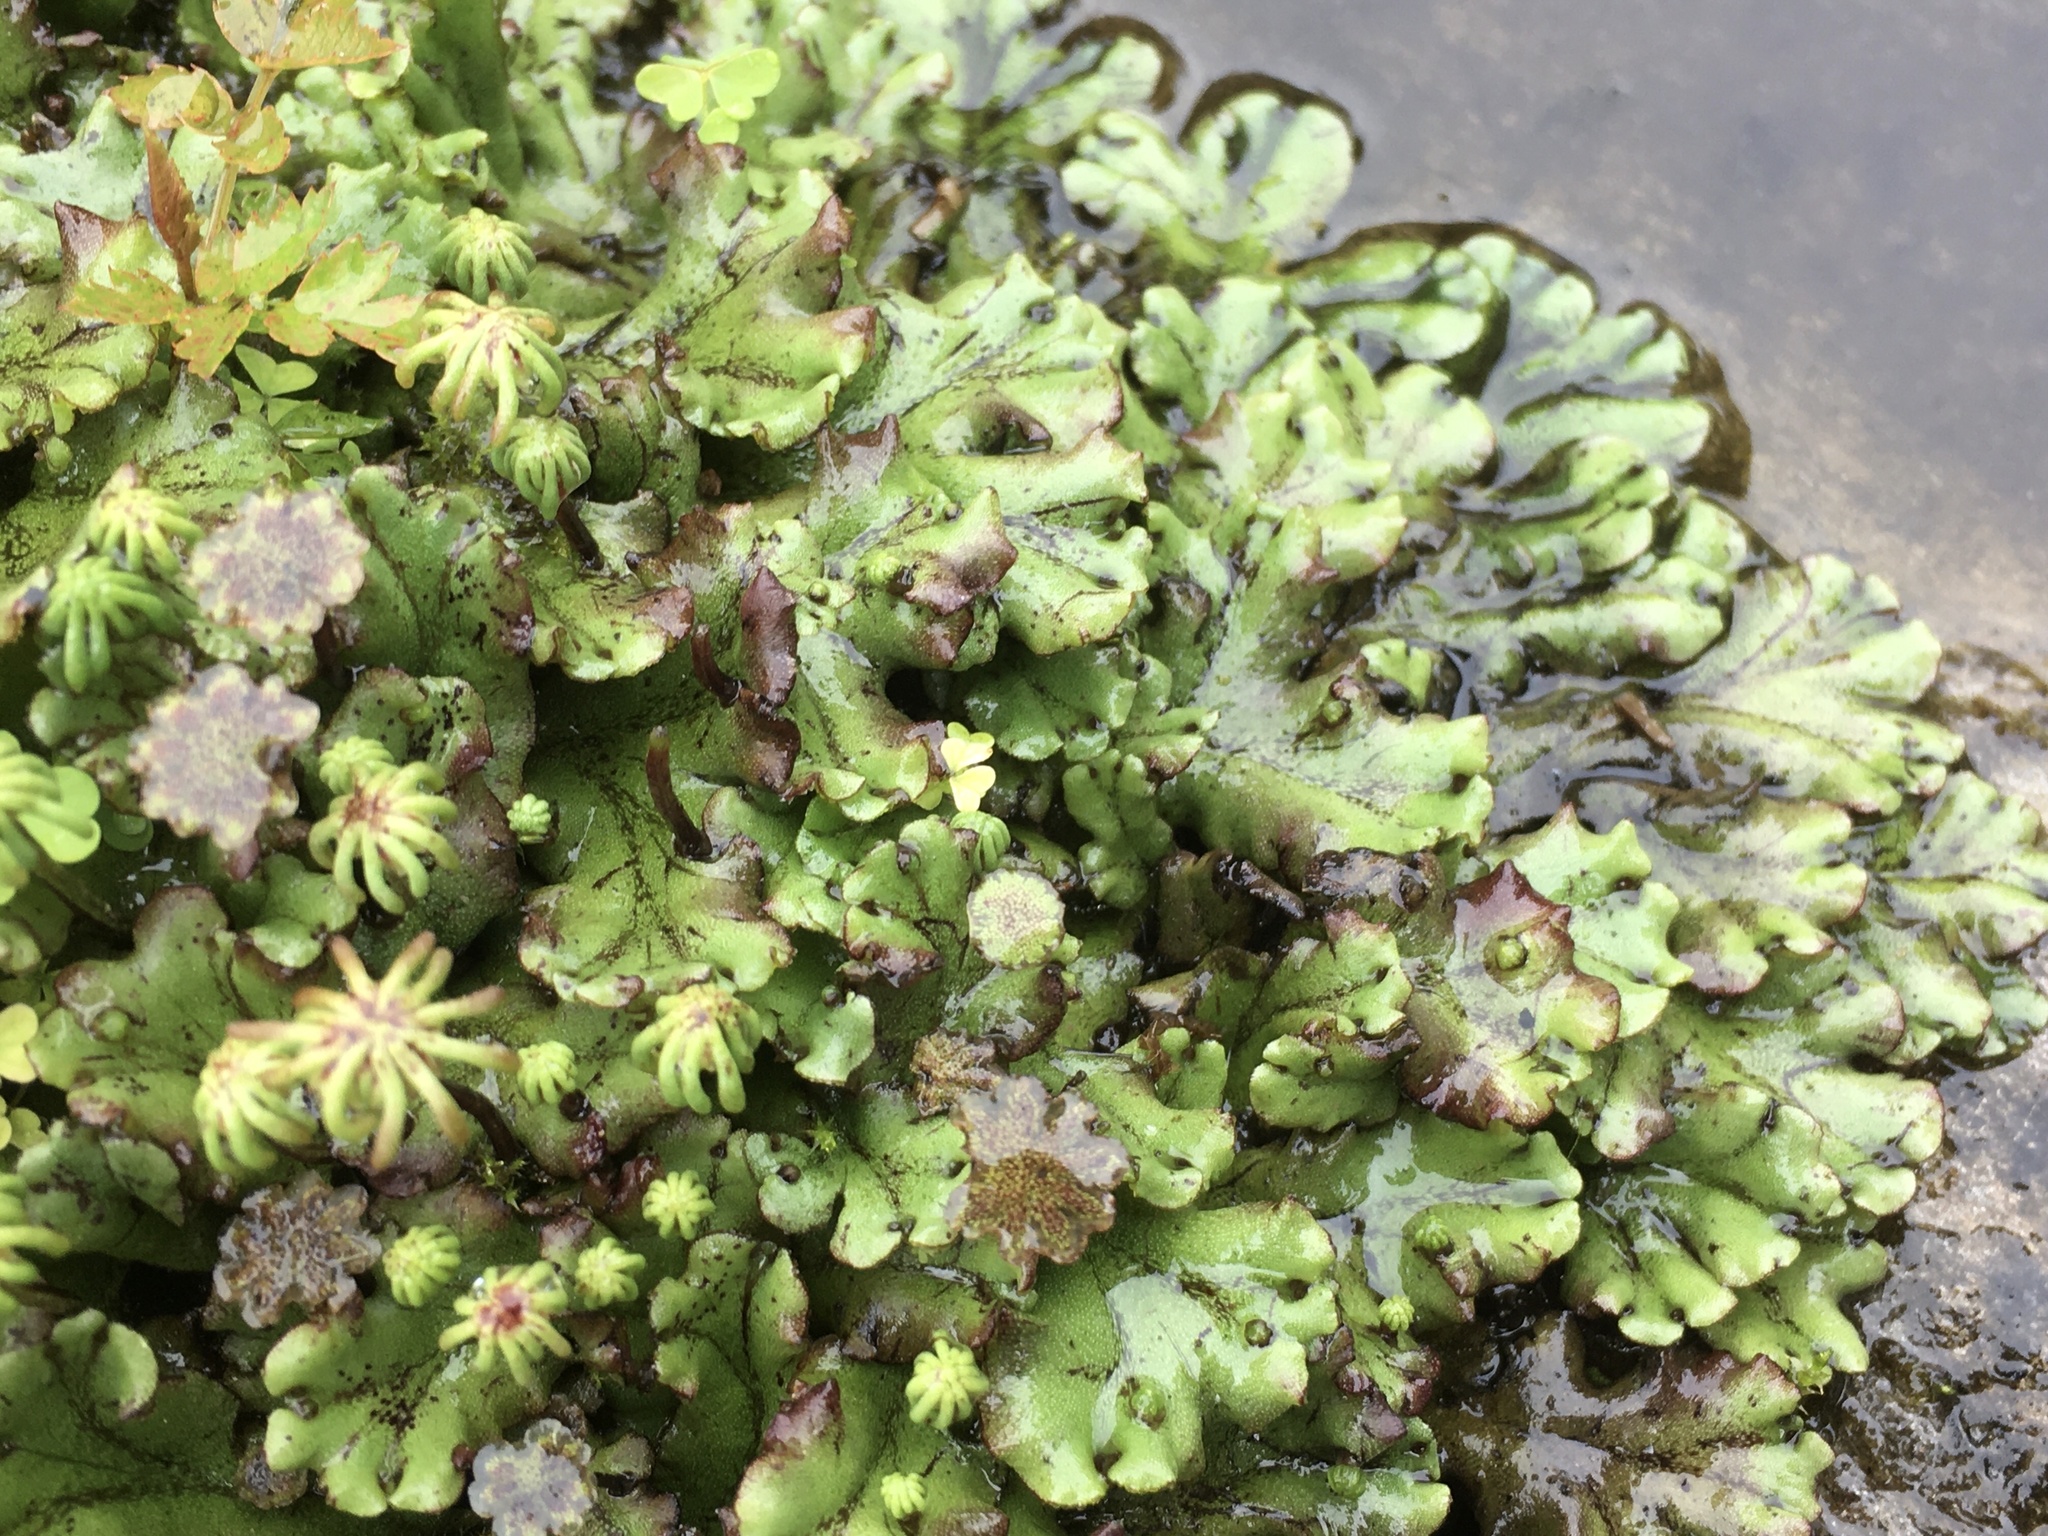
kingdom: Plantae
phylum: Marchantiophyta
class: Marchantiopsida
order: Marchantiales
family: Marchantiaceae
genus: Marchantia
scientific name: Marchantia polymorpha
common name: Common liverwort
